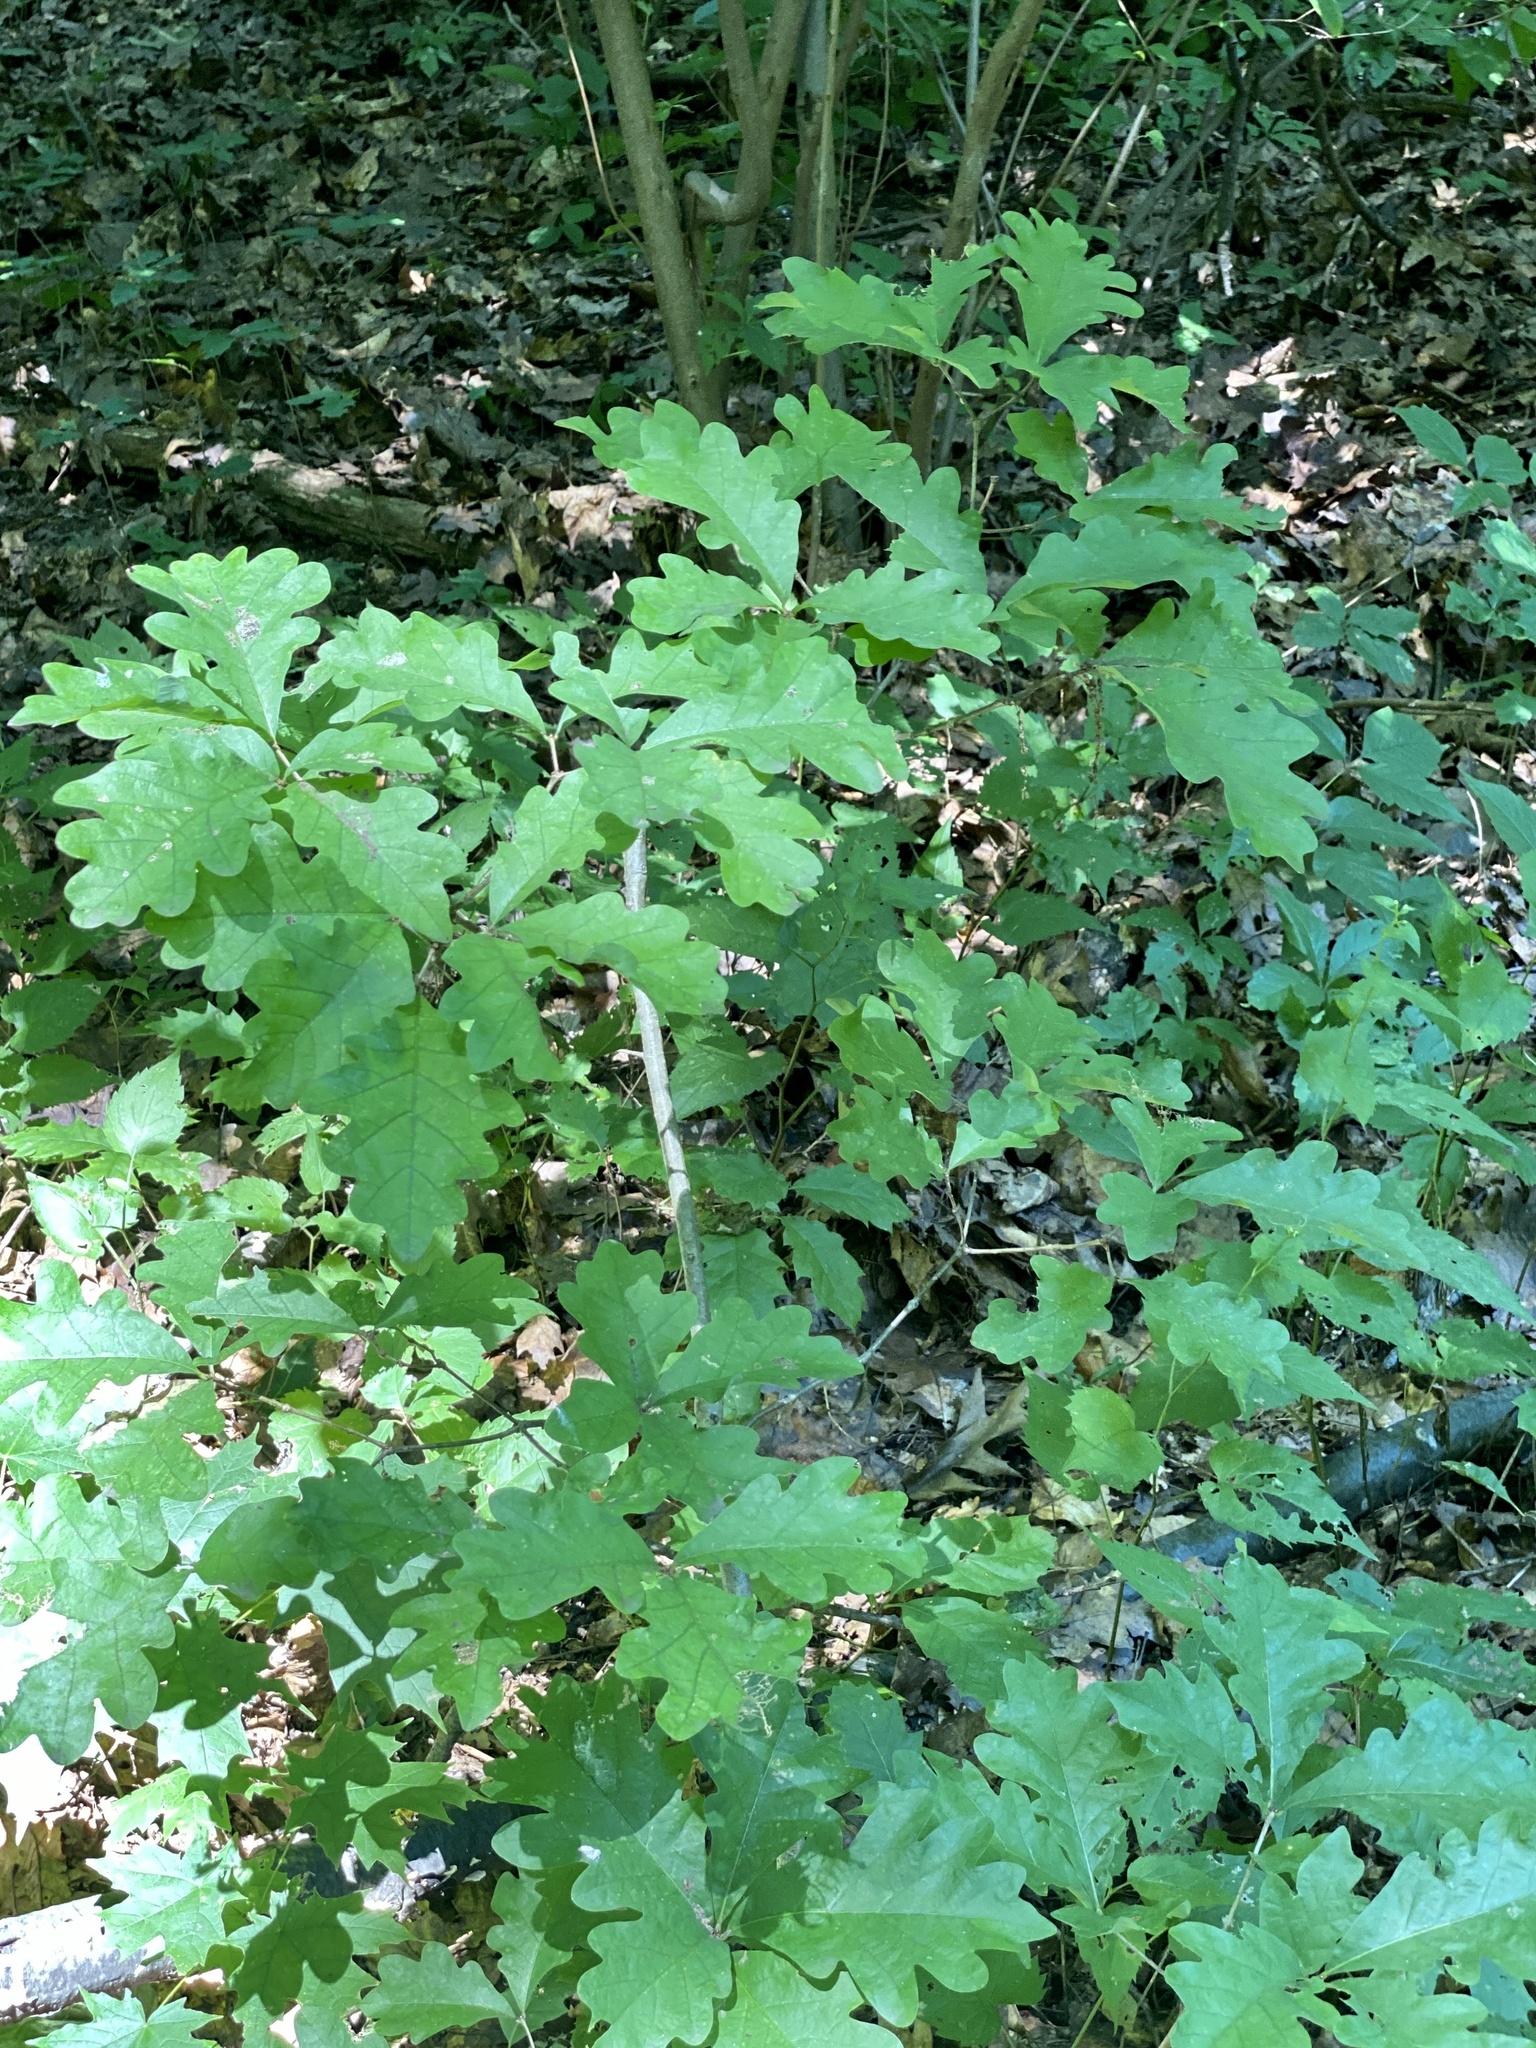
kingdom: Plantae
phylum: Tracheophyta
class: Magnoliopsida
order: Fagales
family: Fagaceae
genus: Quercus
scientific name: Quercus alba
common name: White oak
